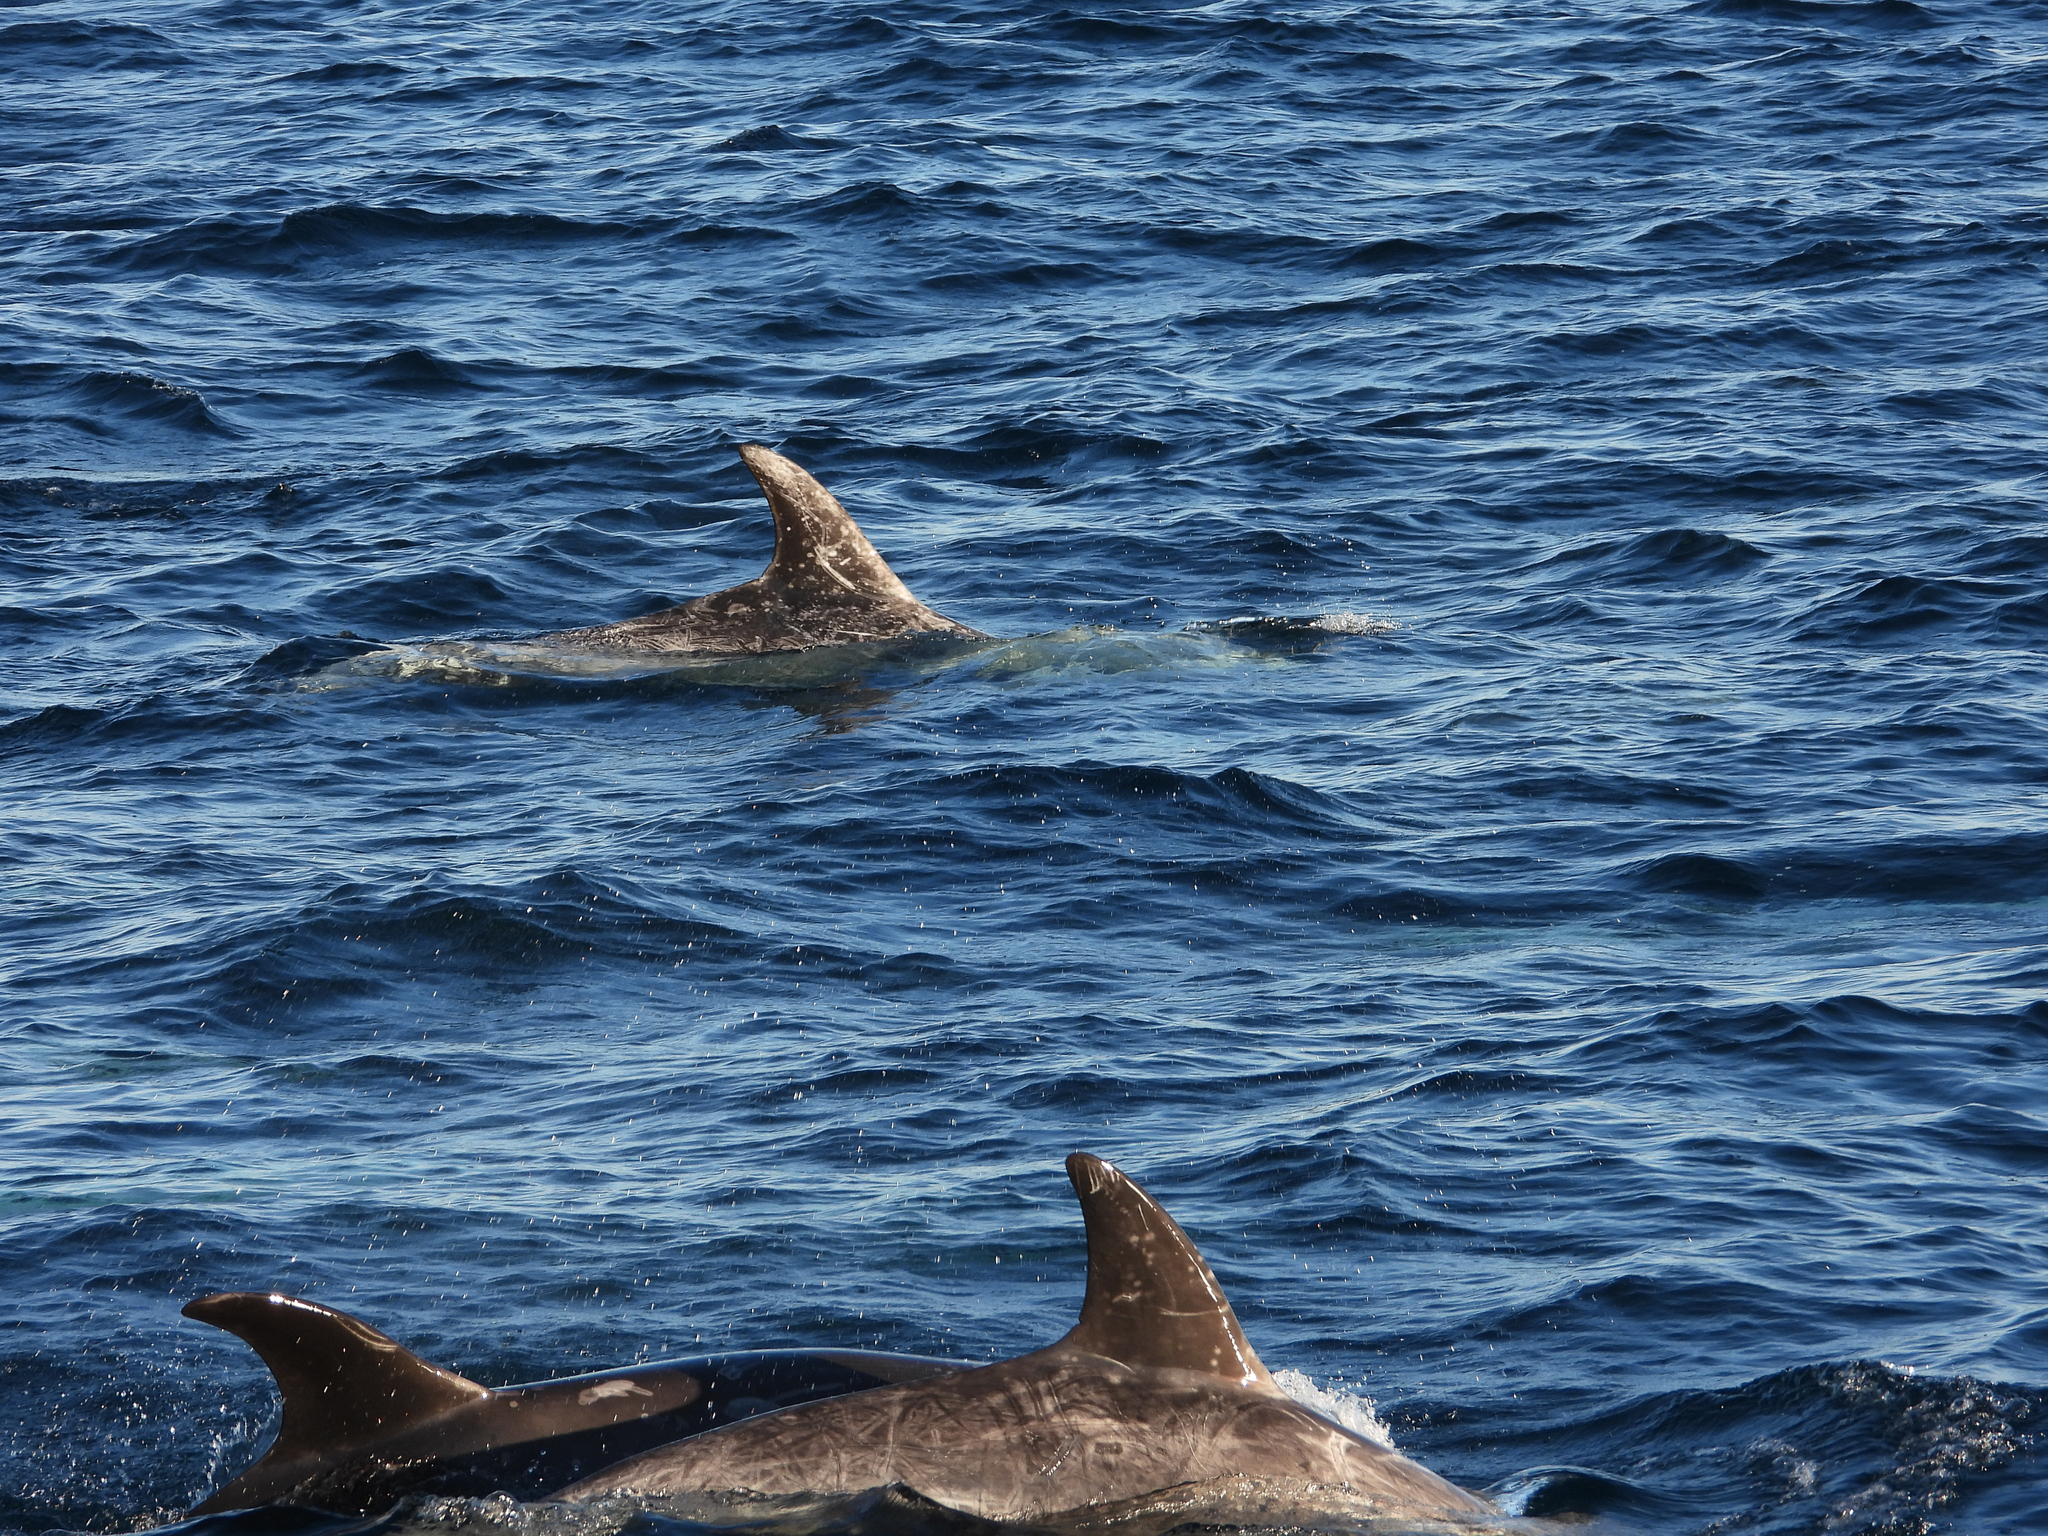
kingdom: Animalia
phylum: Chordata
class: Mammalia
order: Cetacea
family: Delphinidae
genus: Grampus
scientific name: Grampus griseus
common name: Risso's dolphin
